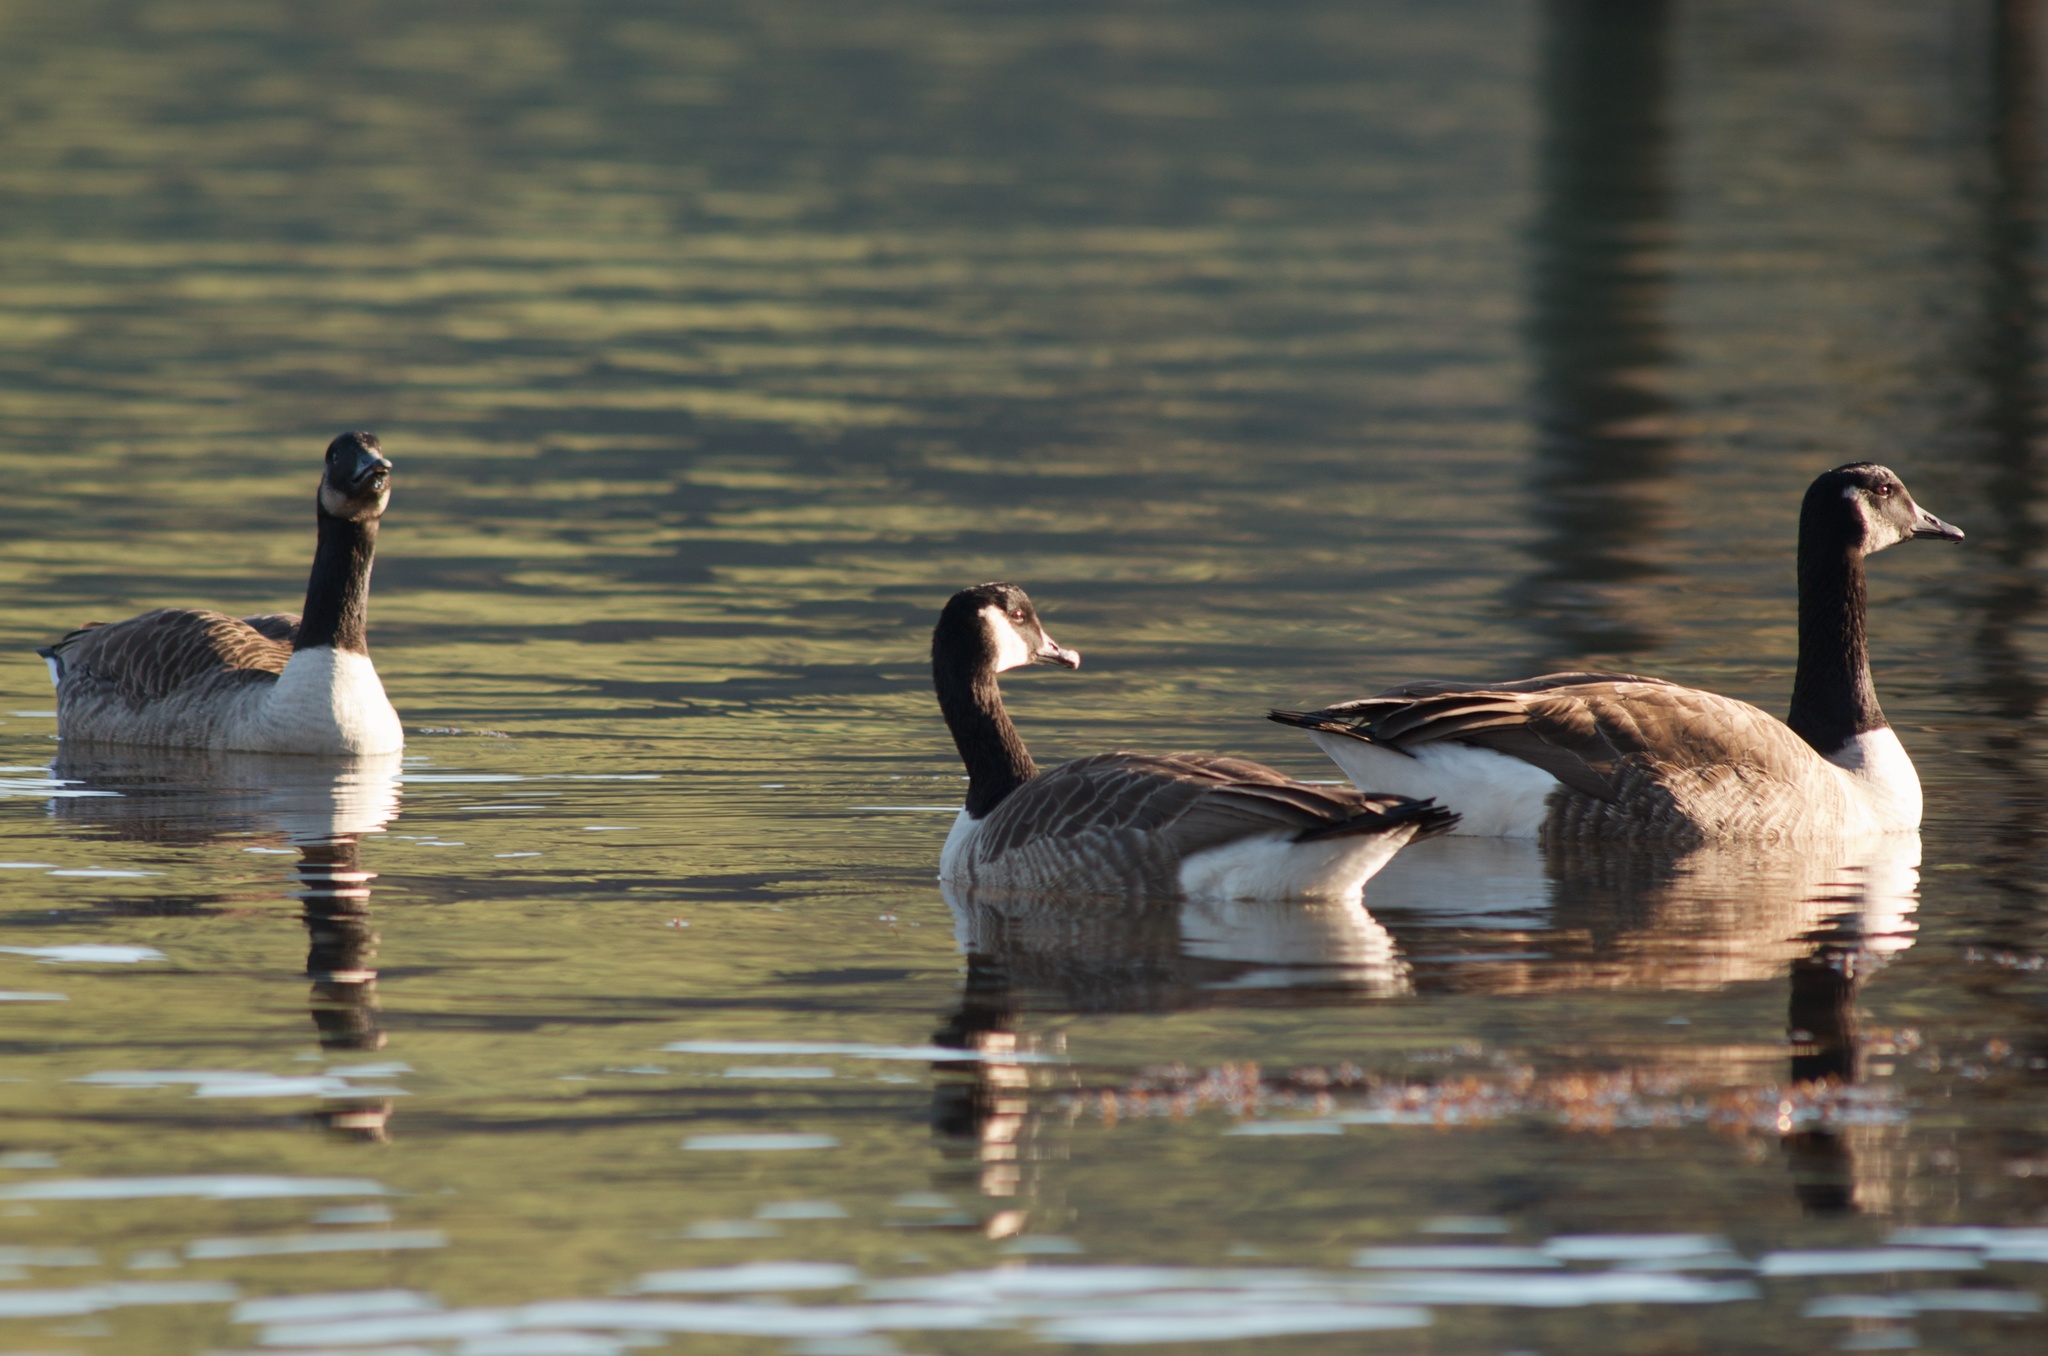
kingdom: Animalia
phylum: Chordata
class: Aves
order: Anseriformes
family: Anatidae
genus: Branta
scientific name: Branta canadensis
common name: Canada goose
